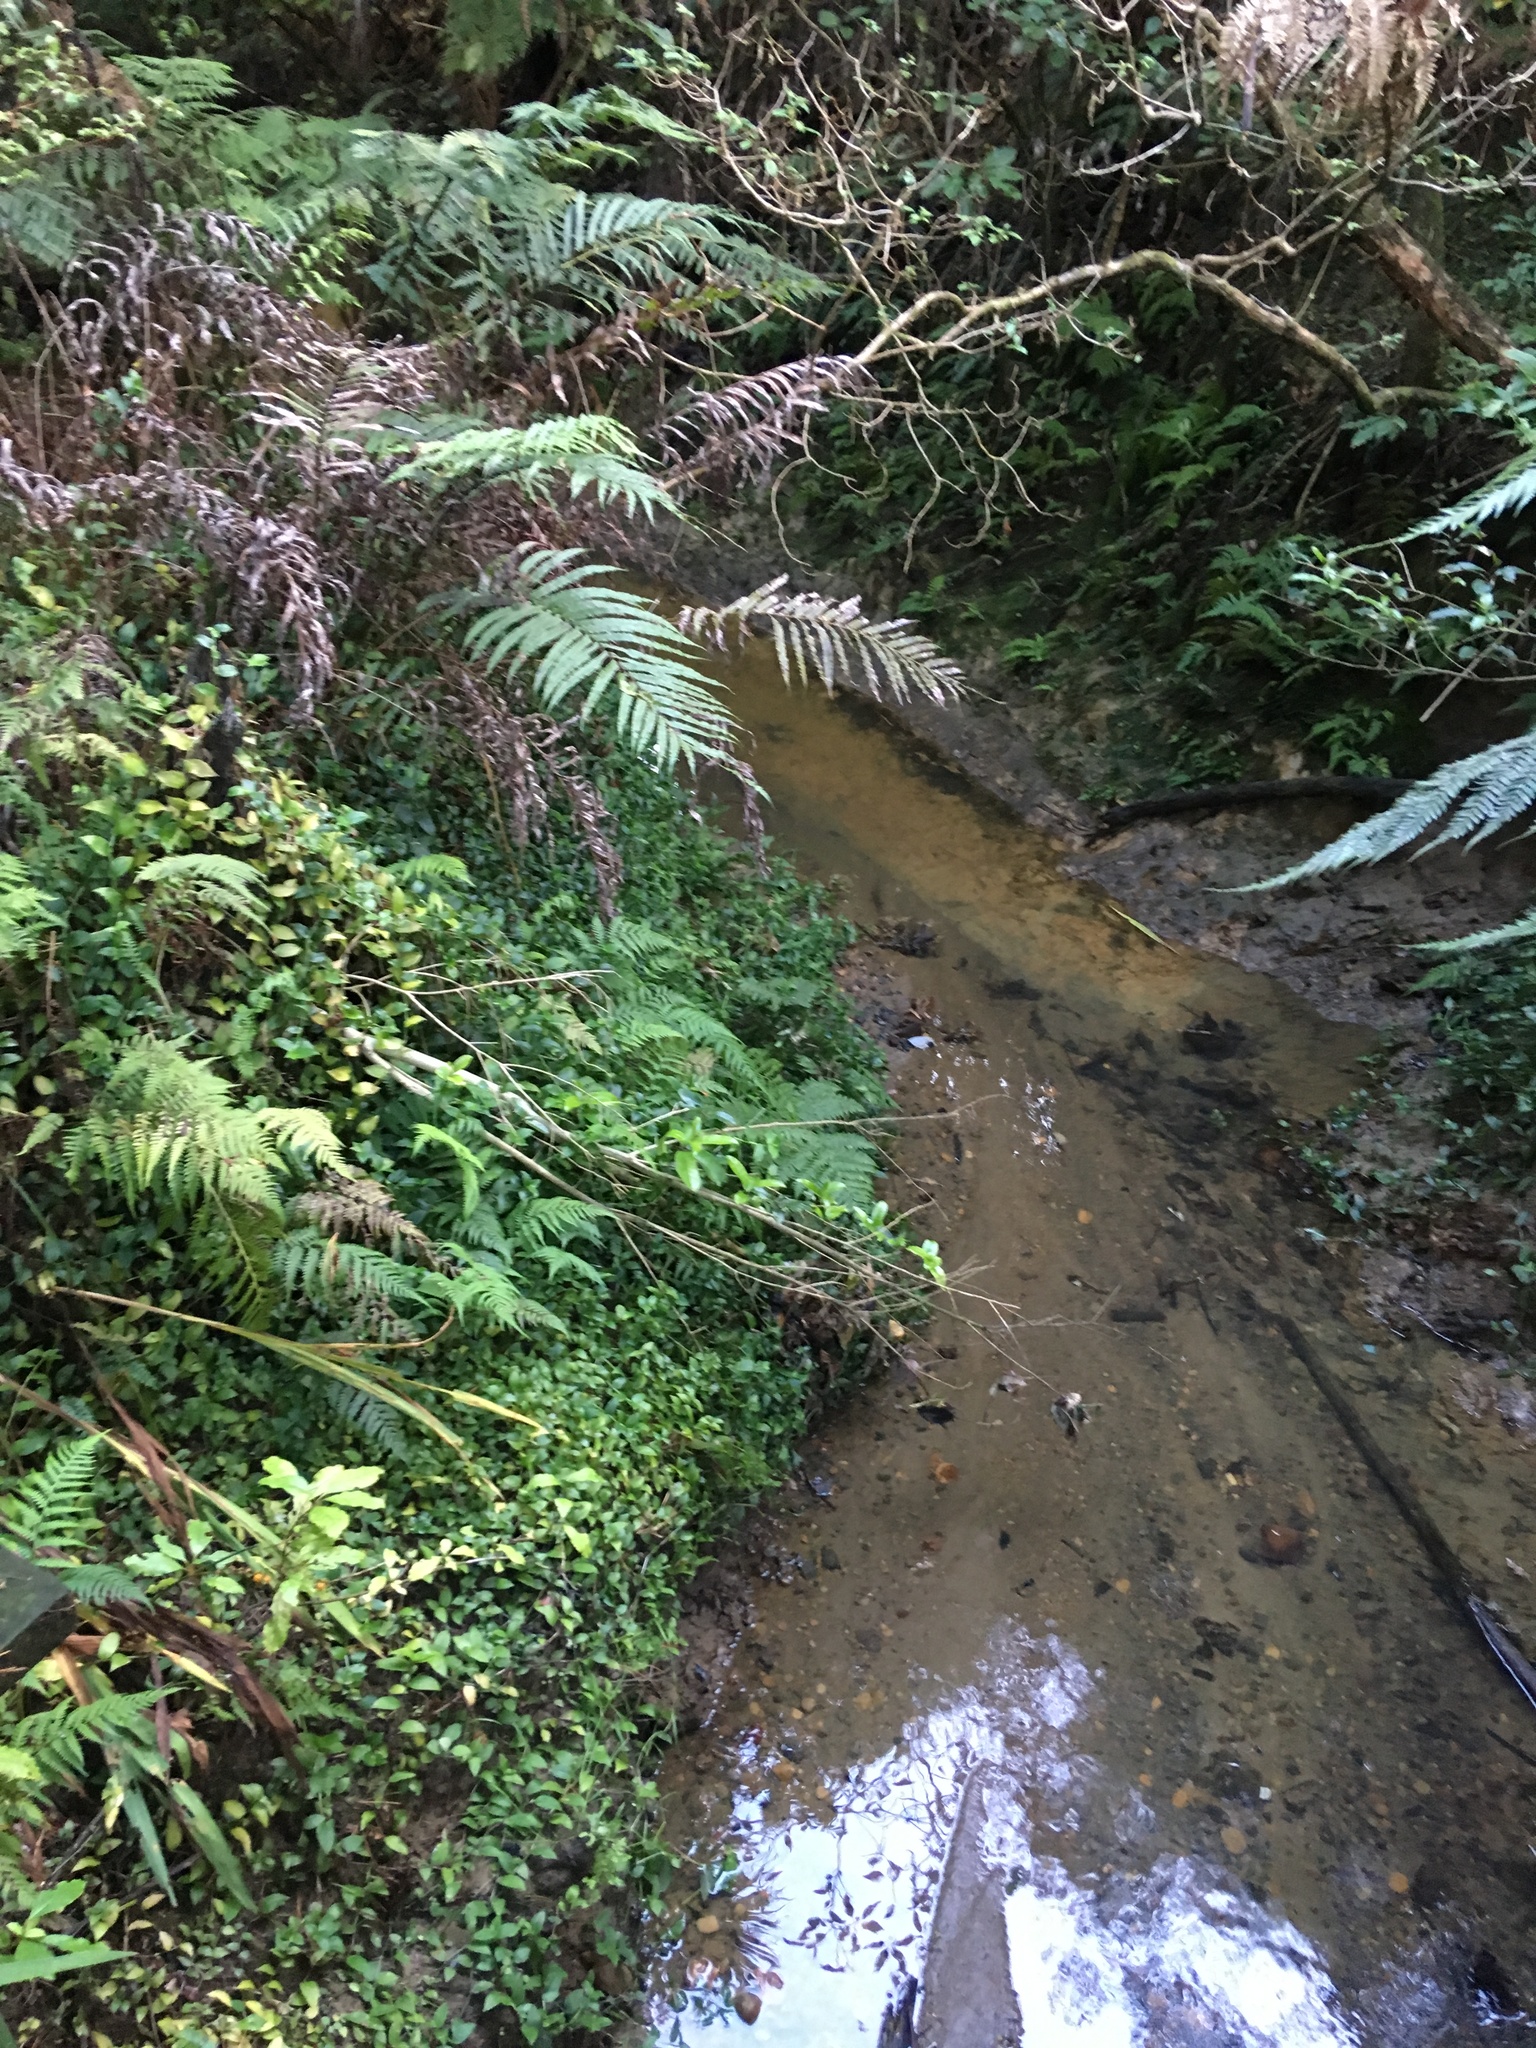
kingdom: Plantae
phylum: Tracheophyta
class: Polypodiopsida
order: Polypodiales
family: Blechnaceae
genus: Parablechnum
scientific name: Parablechnum novae-zelandiae
